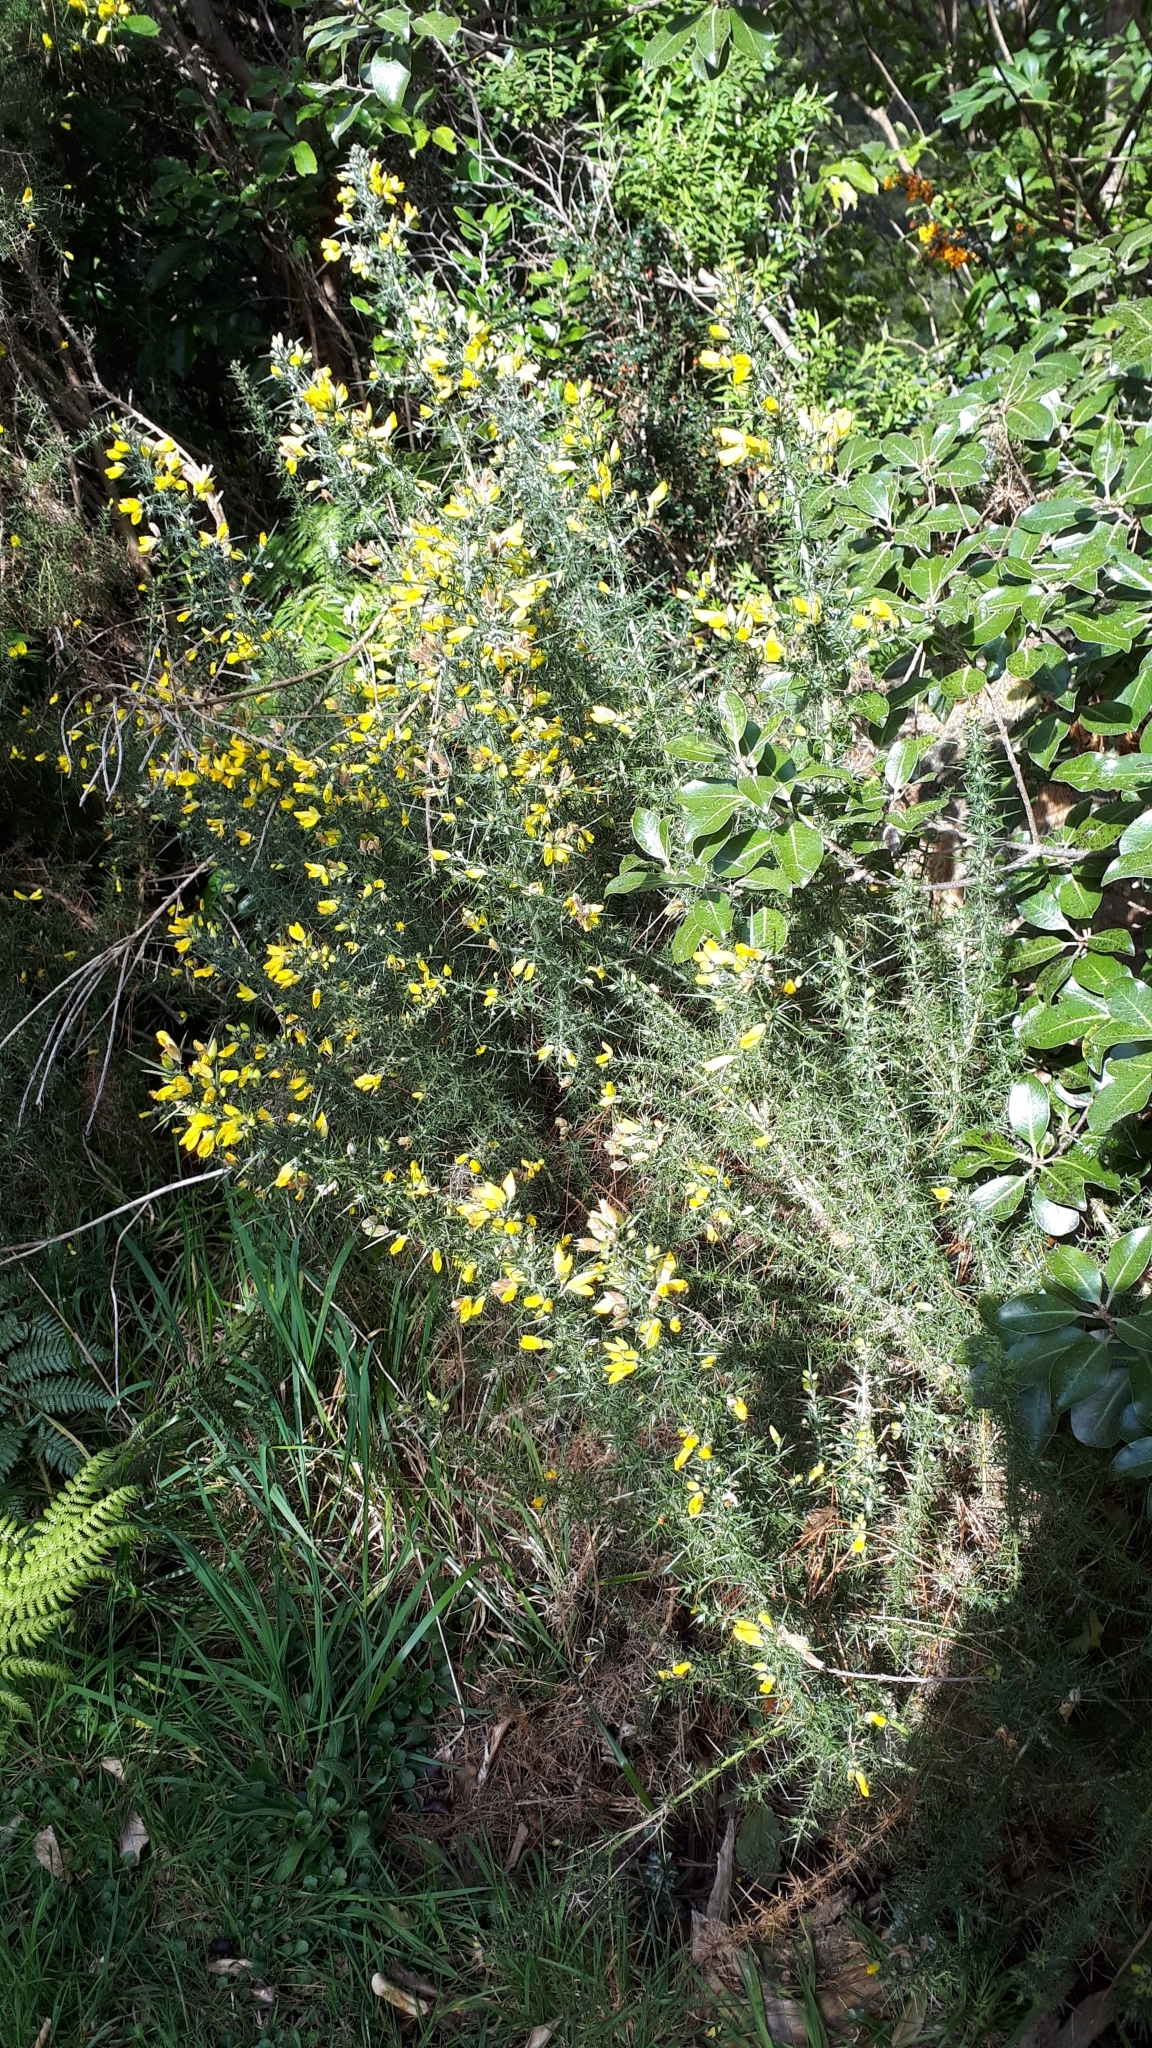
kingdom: Plantae
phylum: Tracheophyta
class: Magnoliopsida
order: Fabales
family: Fabaceae
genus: Ulex
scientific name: Ulex europaeus
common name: Common gorse
